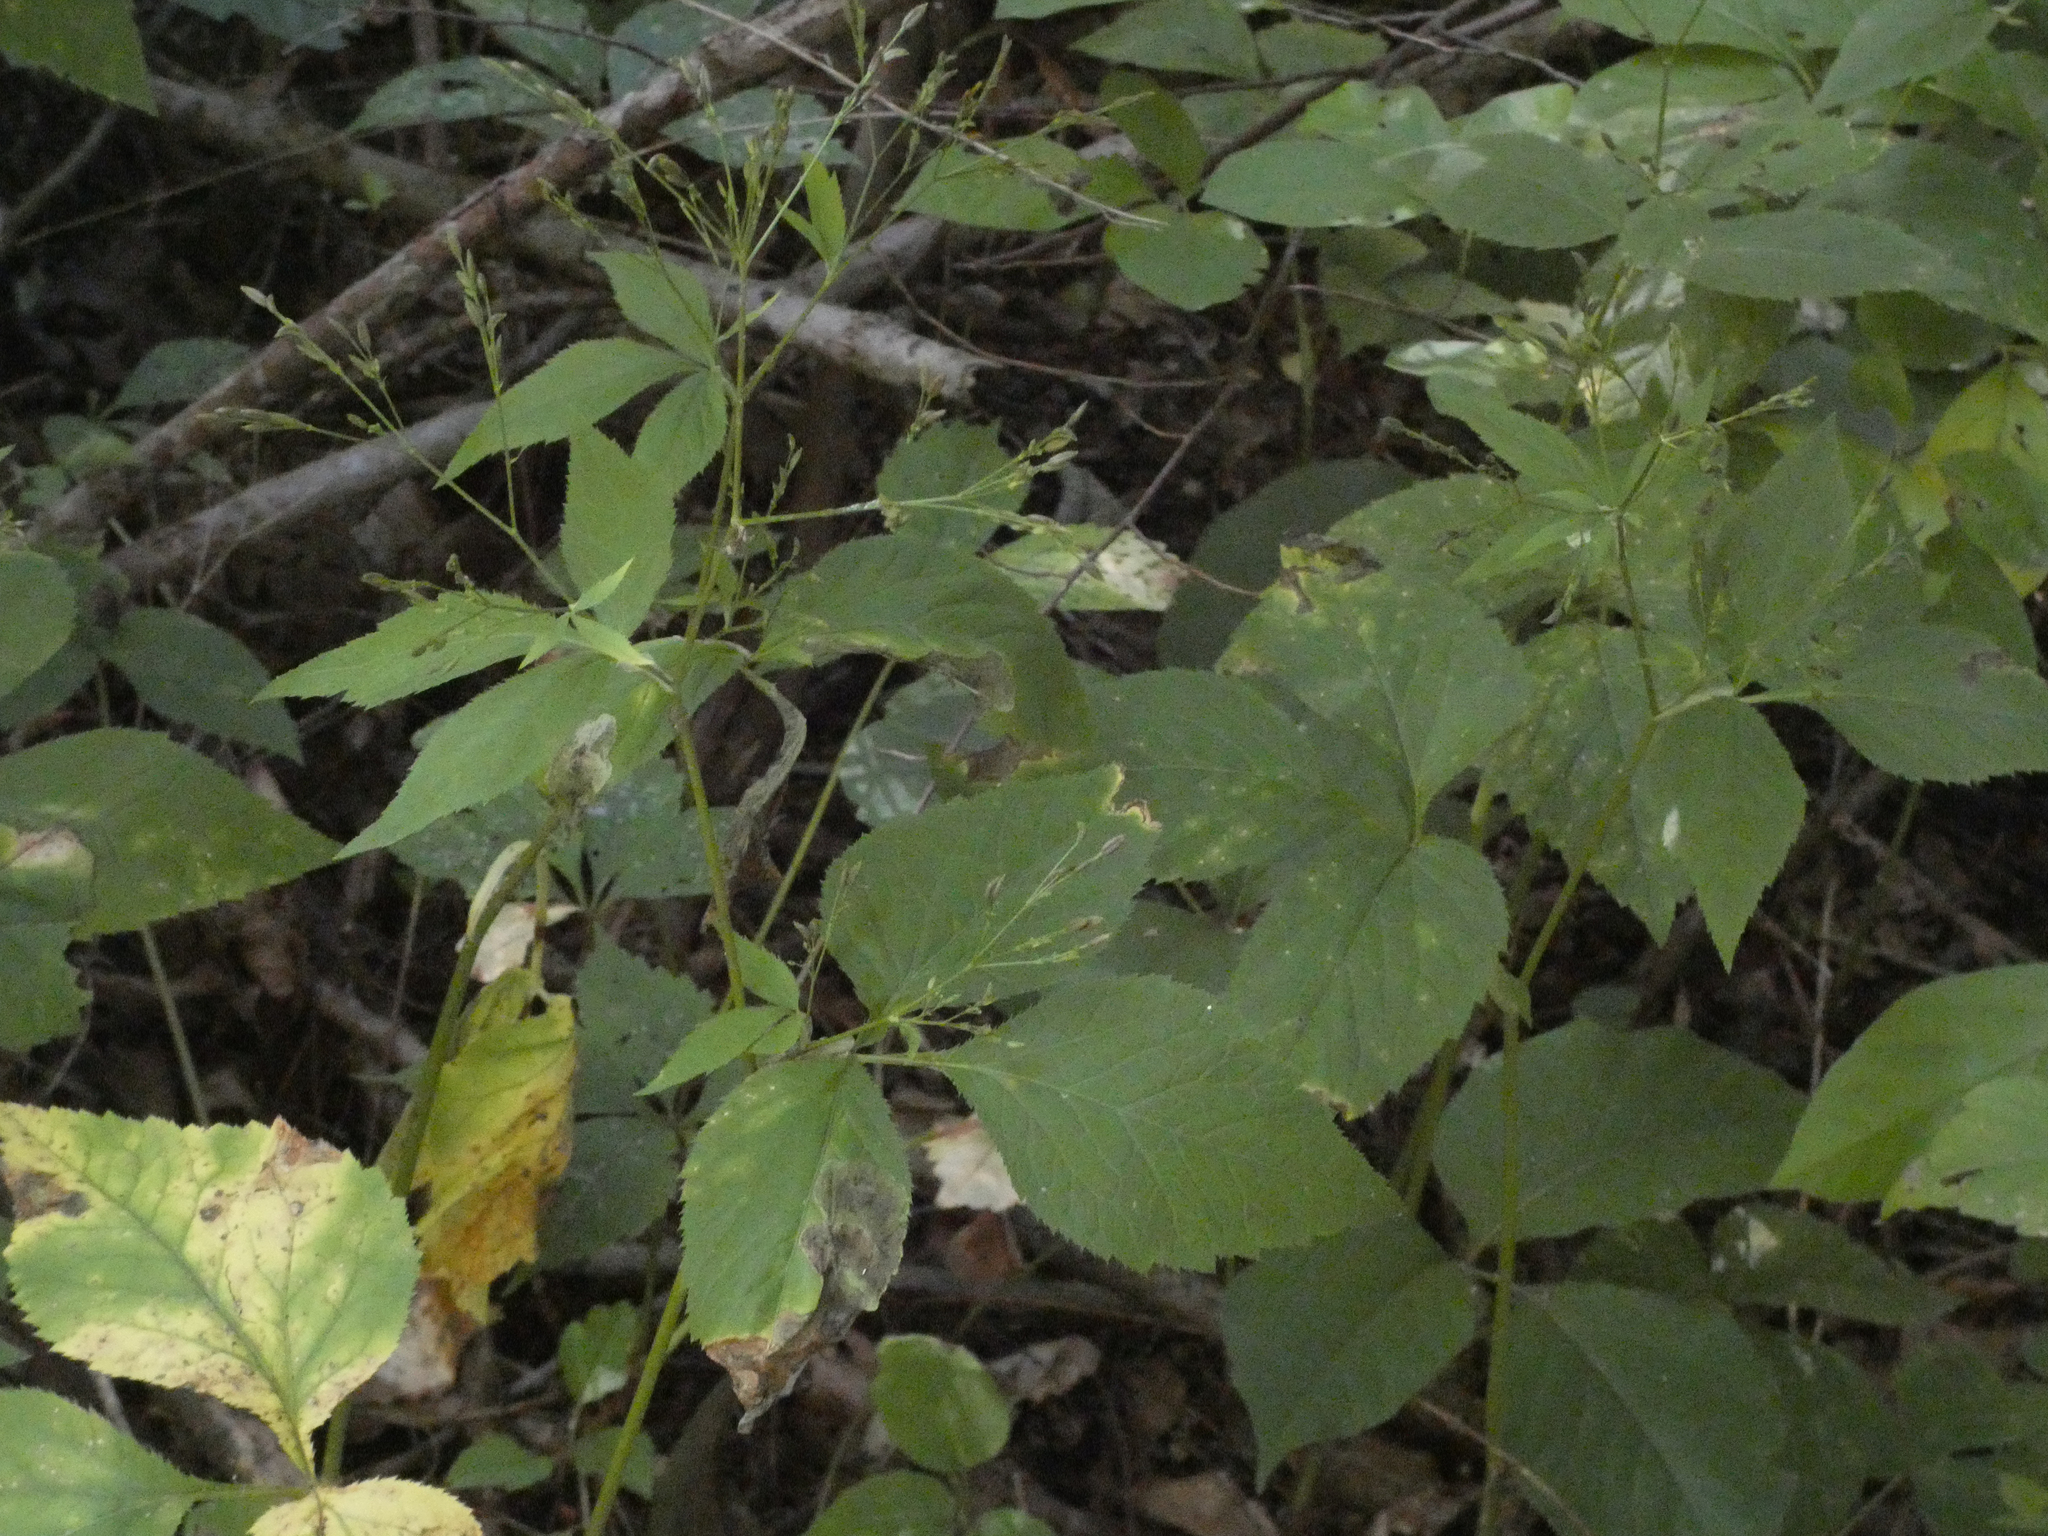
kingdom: Plantae
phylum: Tracheophyta
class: Magnoliopsida
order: Apiales
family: Apiaceae
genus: Cryptotaenia
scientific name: Cryptotaenia canadensis
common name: Honewort
